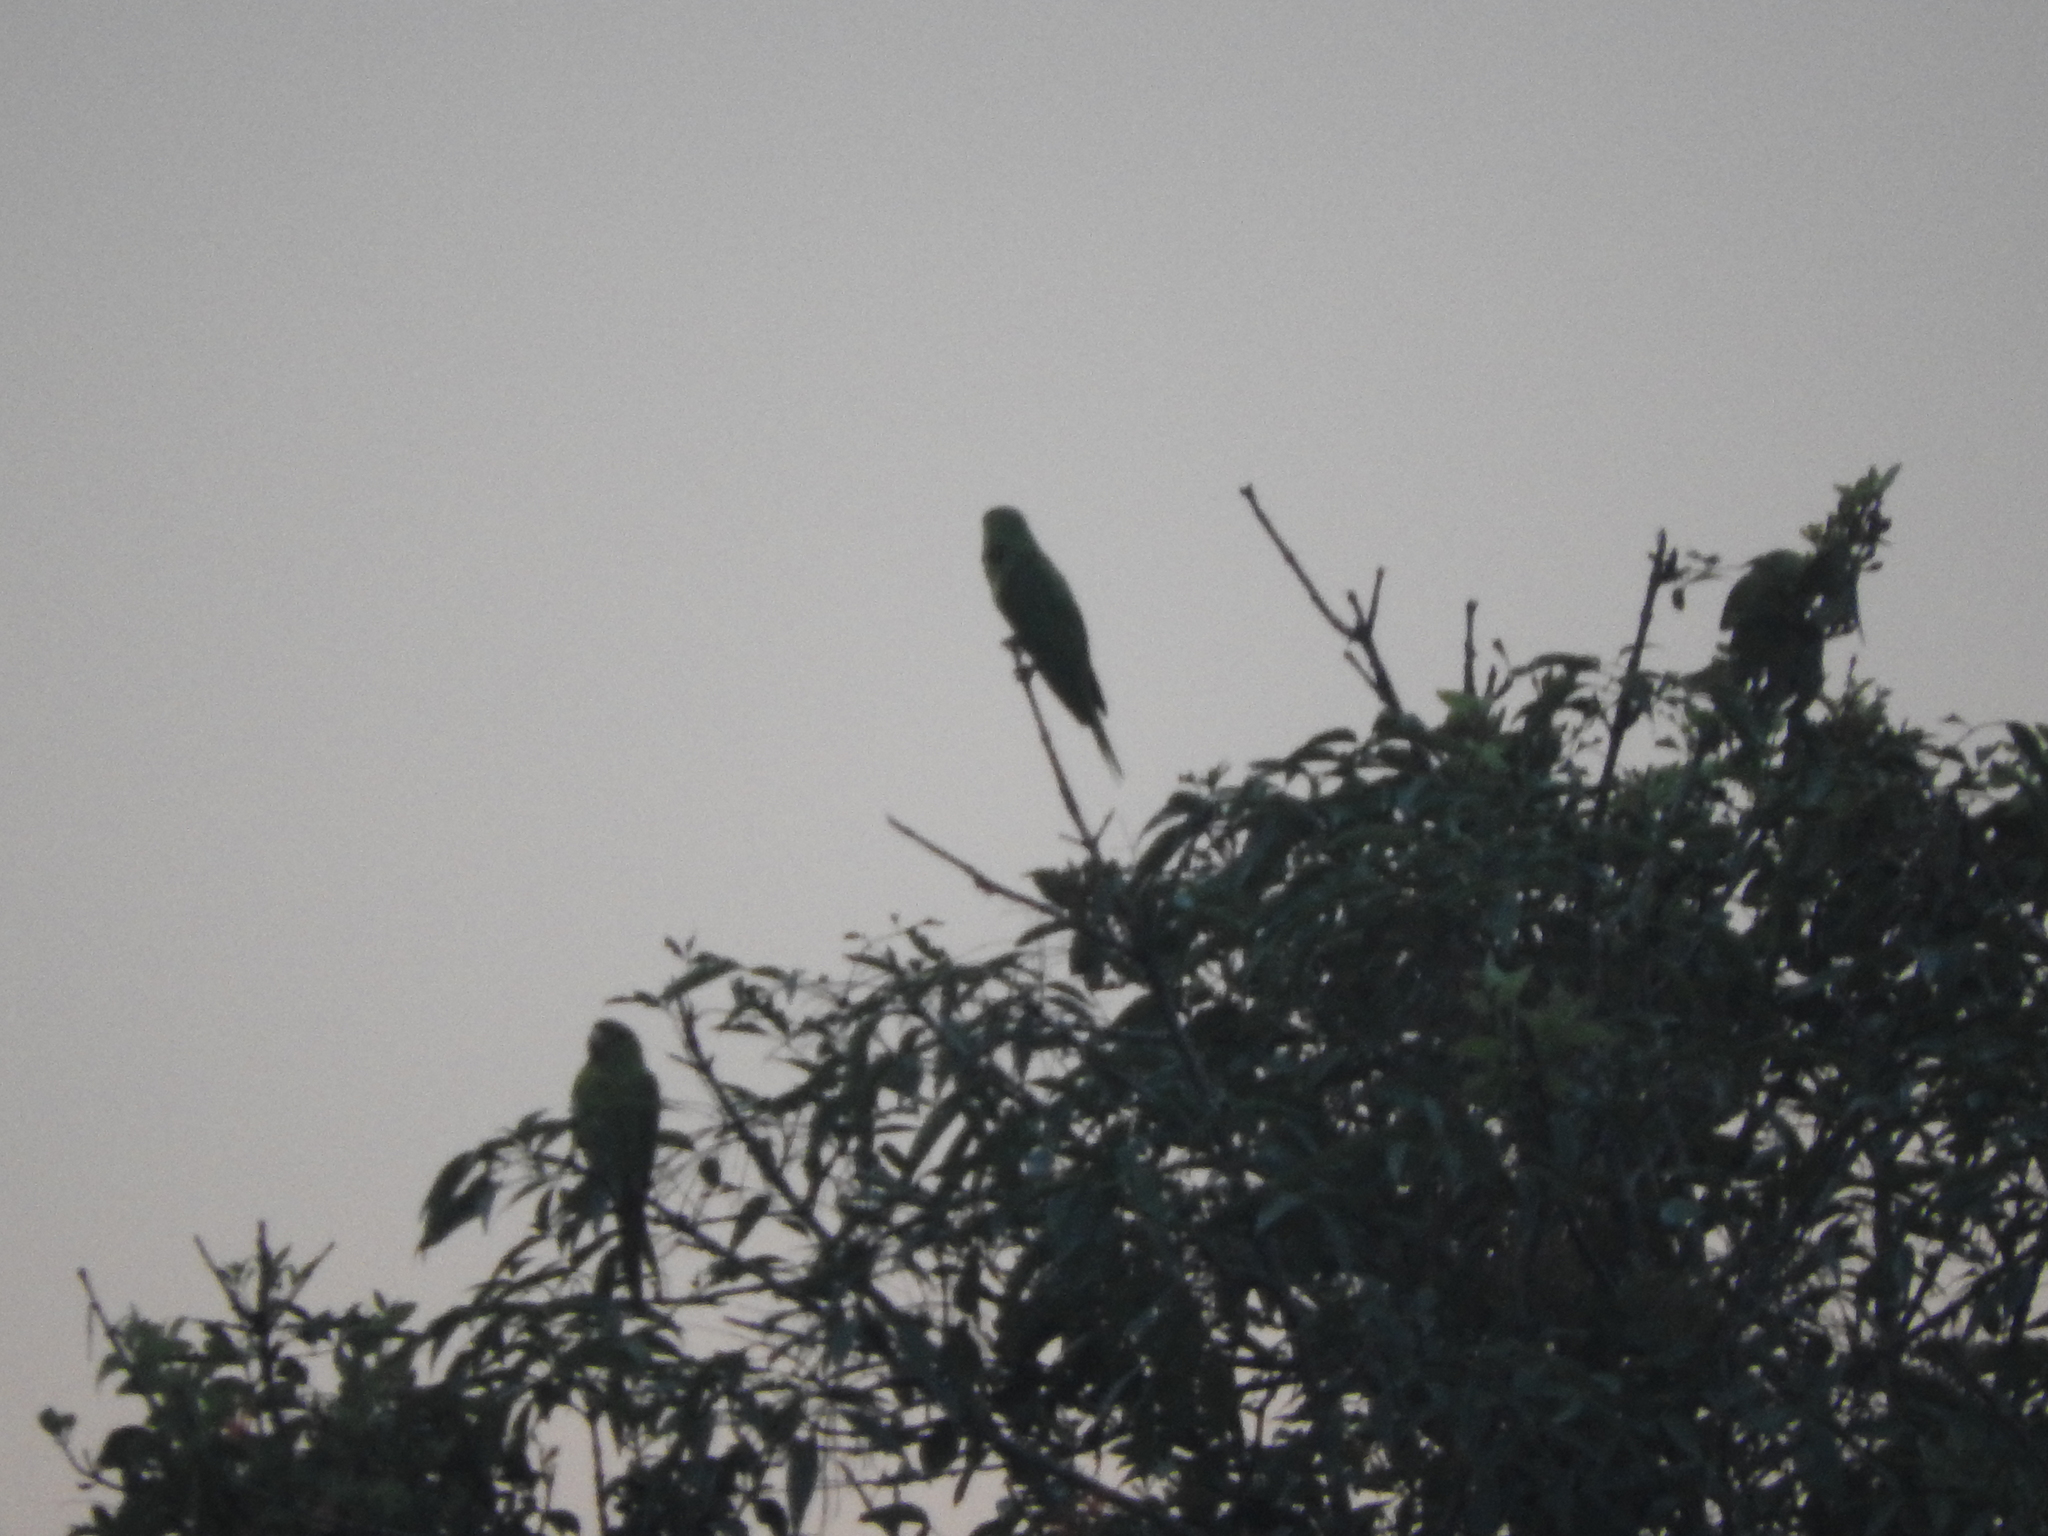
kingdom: Animalia
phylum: Chordata
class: Aves
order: Psittaciformes
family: Psittacidae
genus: Aratinga
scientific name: Aratinga holochlora
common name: Green parakeet
